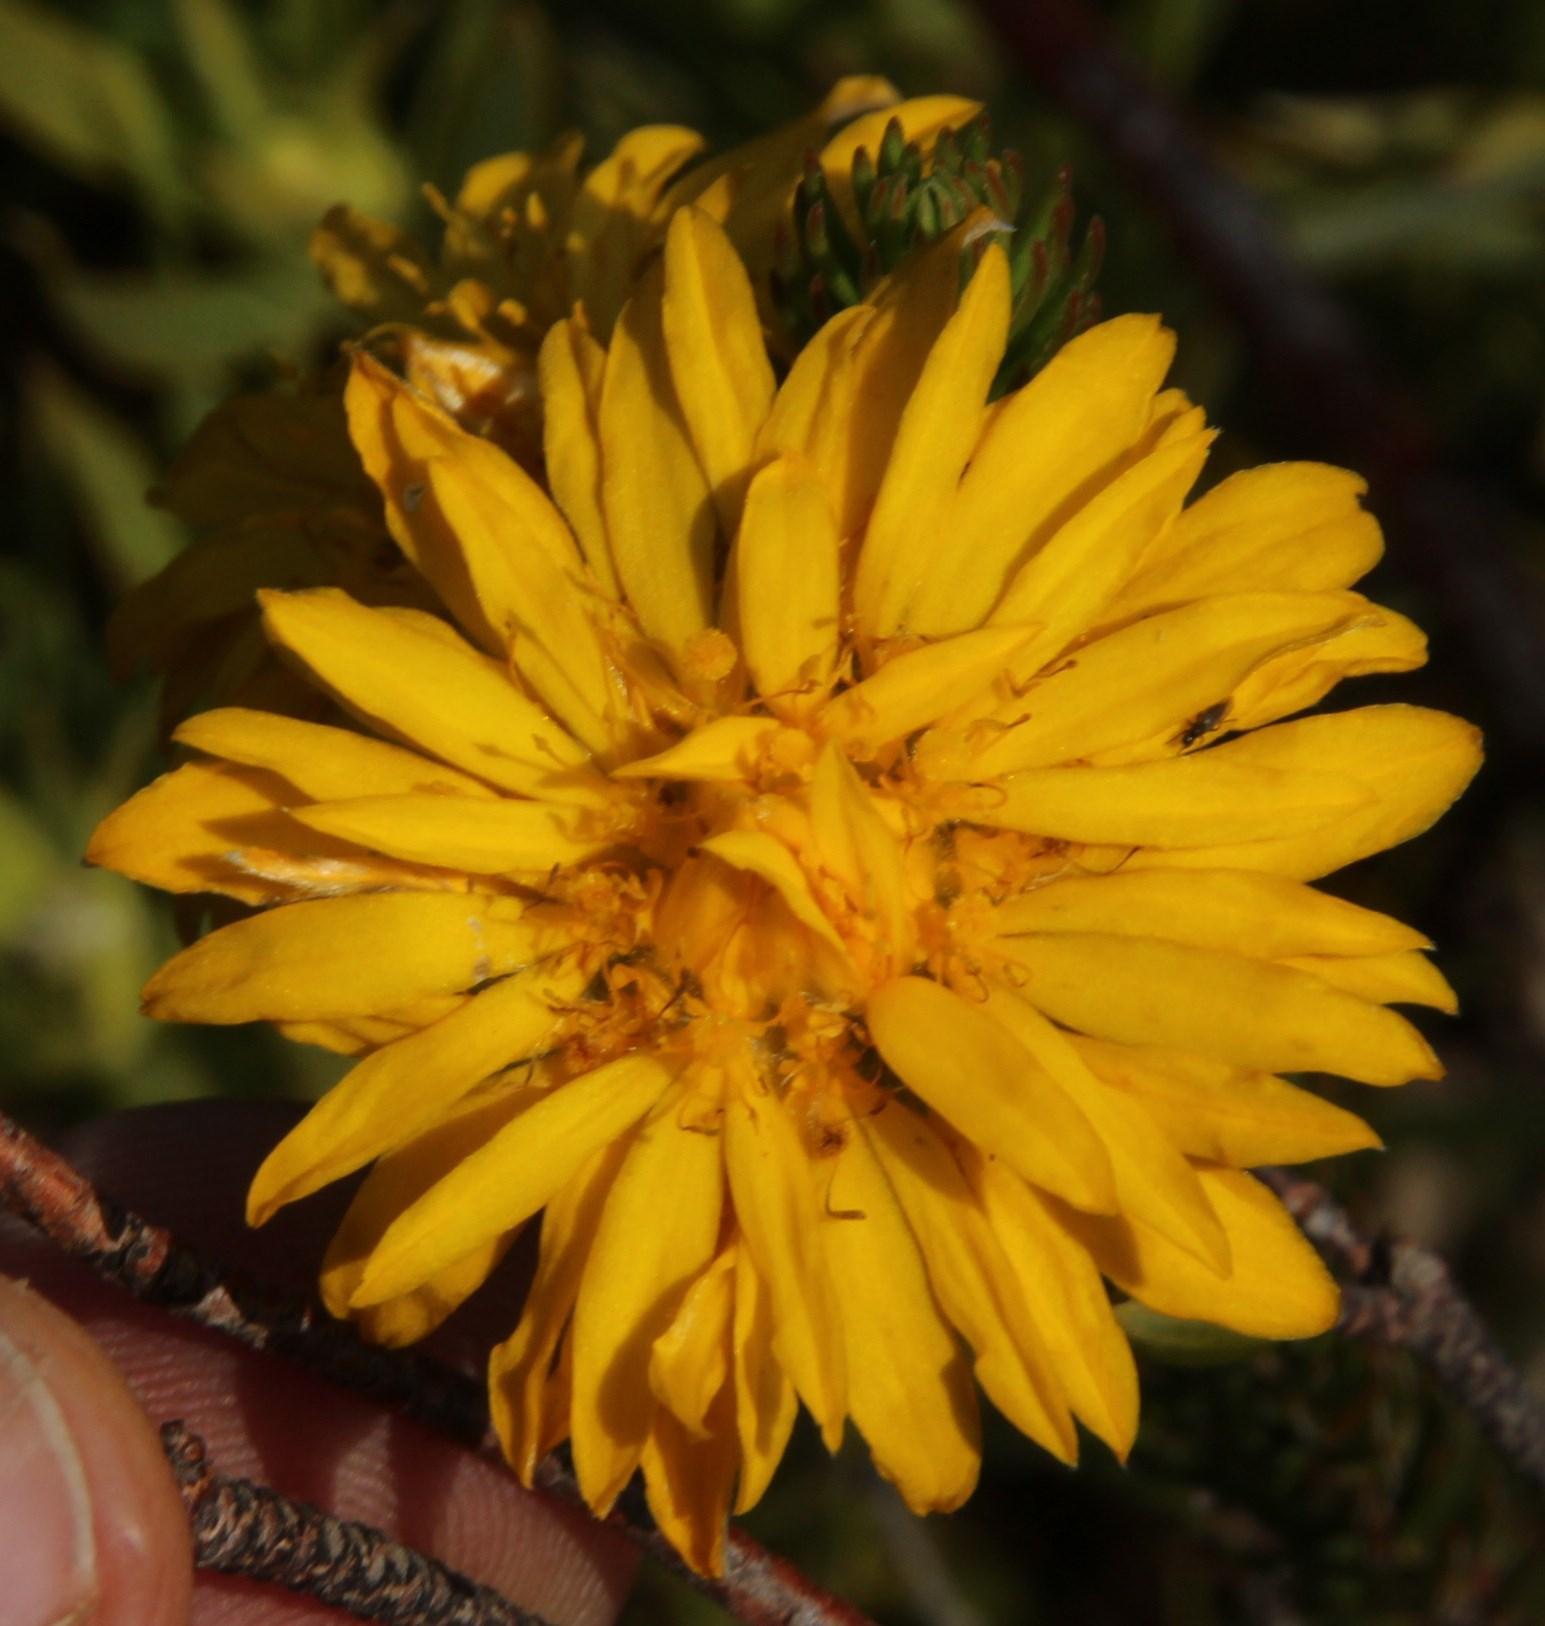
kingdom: Plantae
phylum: Tracheophyta
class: Magnoliopsida
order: Malvales
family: Thymelaeaceae
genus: Lachnaea
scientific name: Lachnaea aurea
